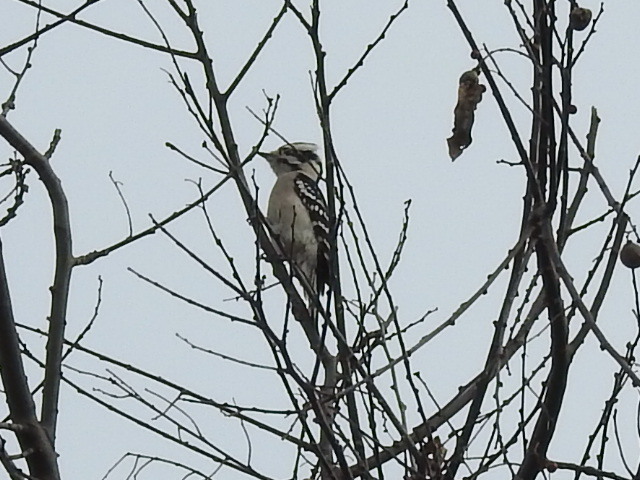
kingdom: Animalia
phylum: Chordata
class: Aves
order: Piciformes
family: Picidae
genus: Dryobates
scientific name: Dryobates pubescens
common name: Downy woodpecker
